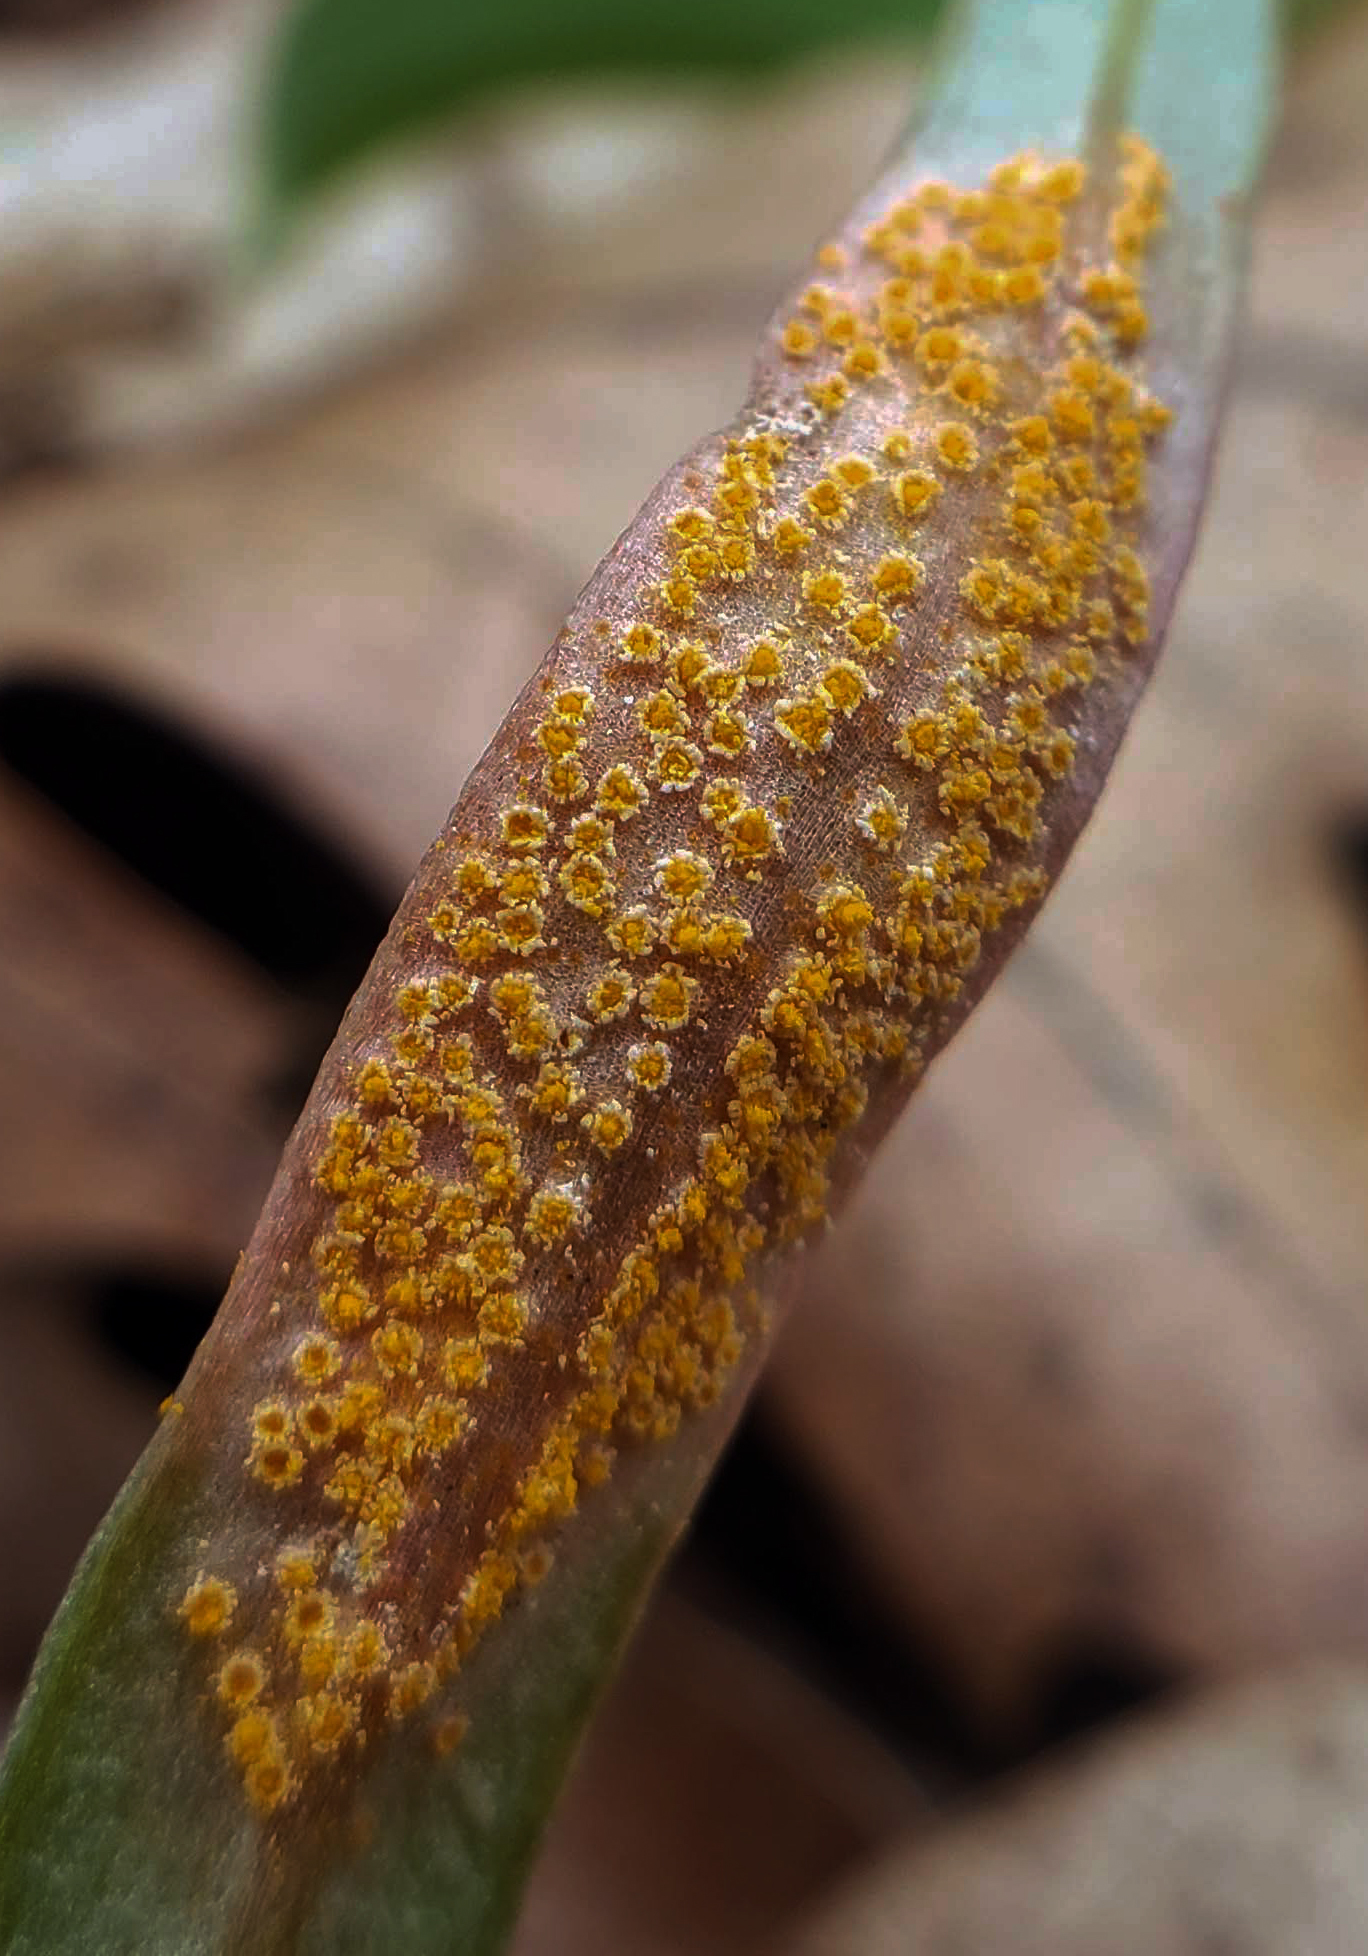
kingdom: Fungi
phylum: Basidiomycota
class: Pucciniomycetes
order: Pucciniales
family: Pucciniaceae
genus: Puccinia
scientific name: Puccinia mariae-wilsoniae
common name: Spring beauty rust
